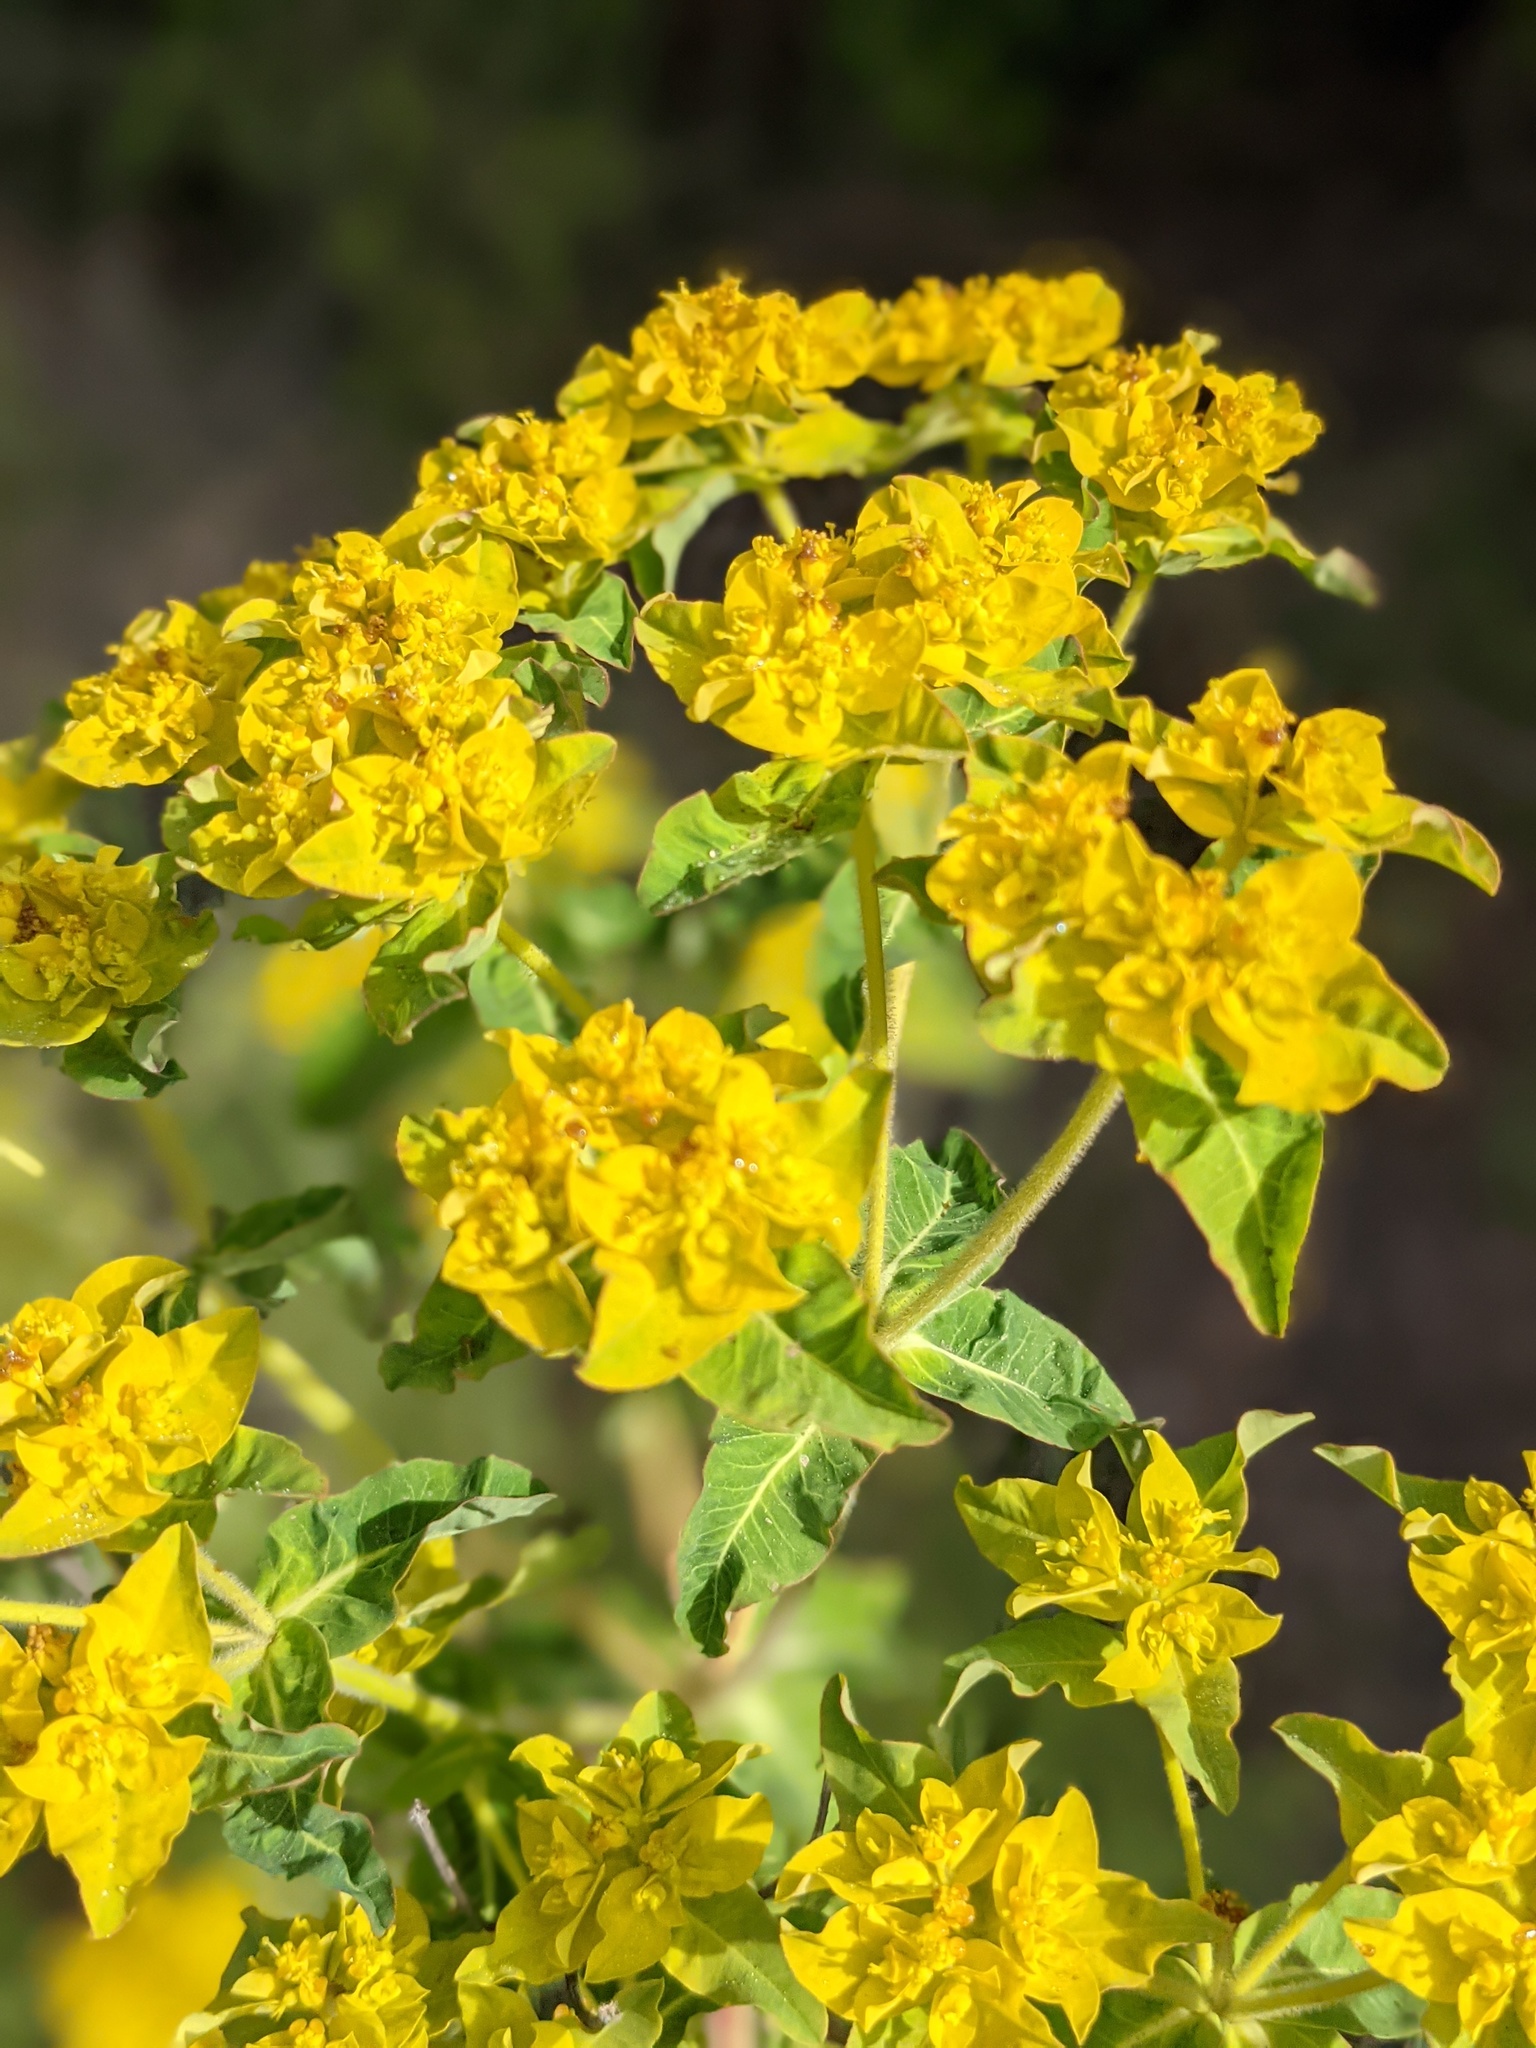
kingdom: Plantae
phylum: Tracheophyta
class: Magnoliopsida
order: Malpighiales
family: Euphorbiaceae
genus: Euphorbia
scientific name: Euphorbia oblongata
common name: Balkan spurge
